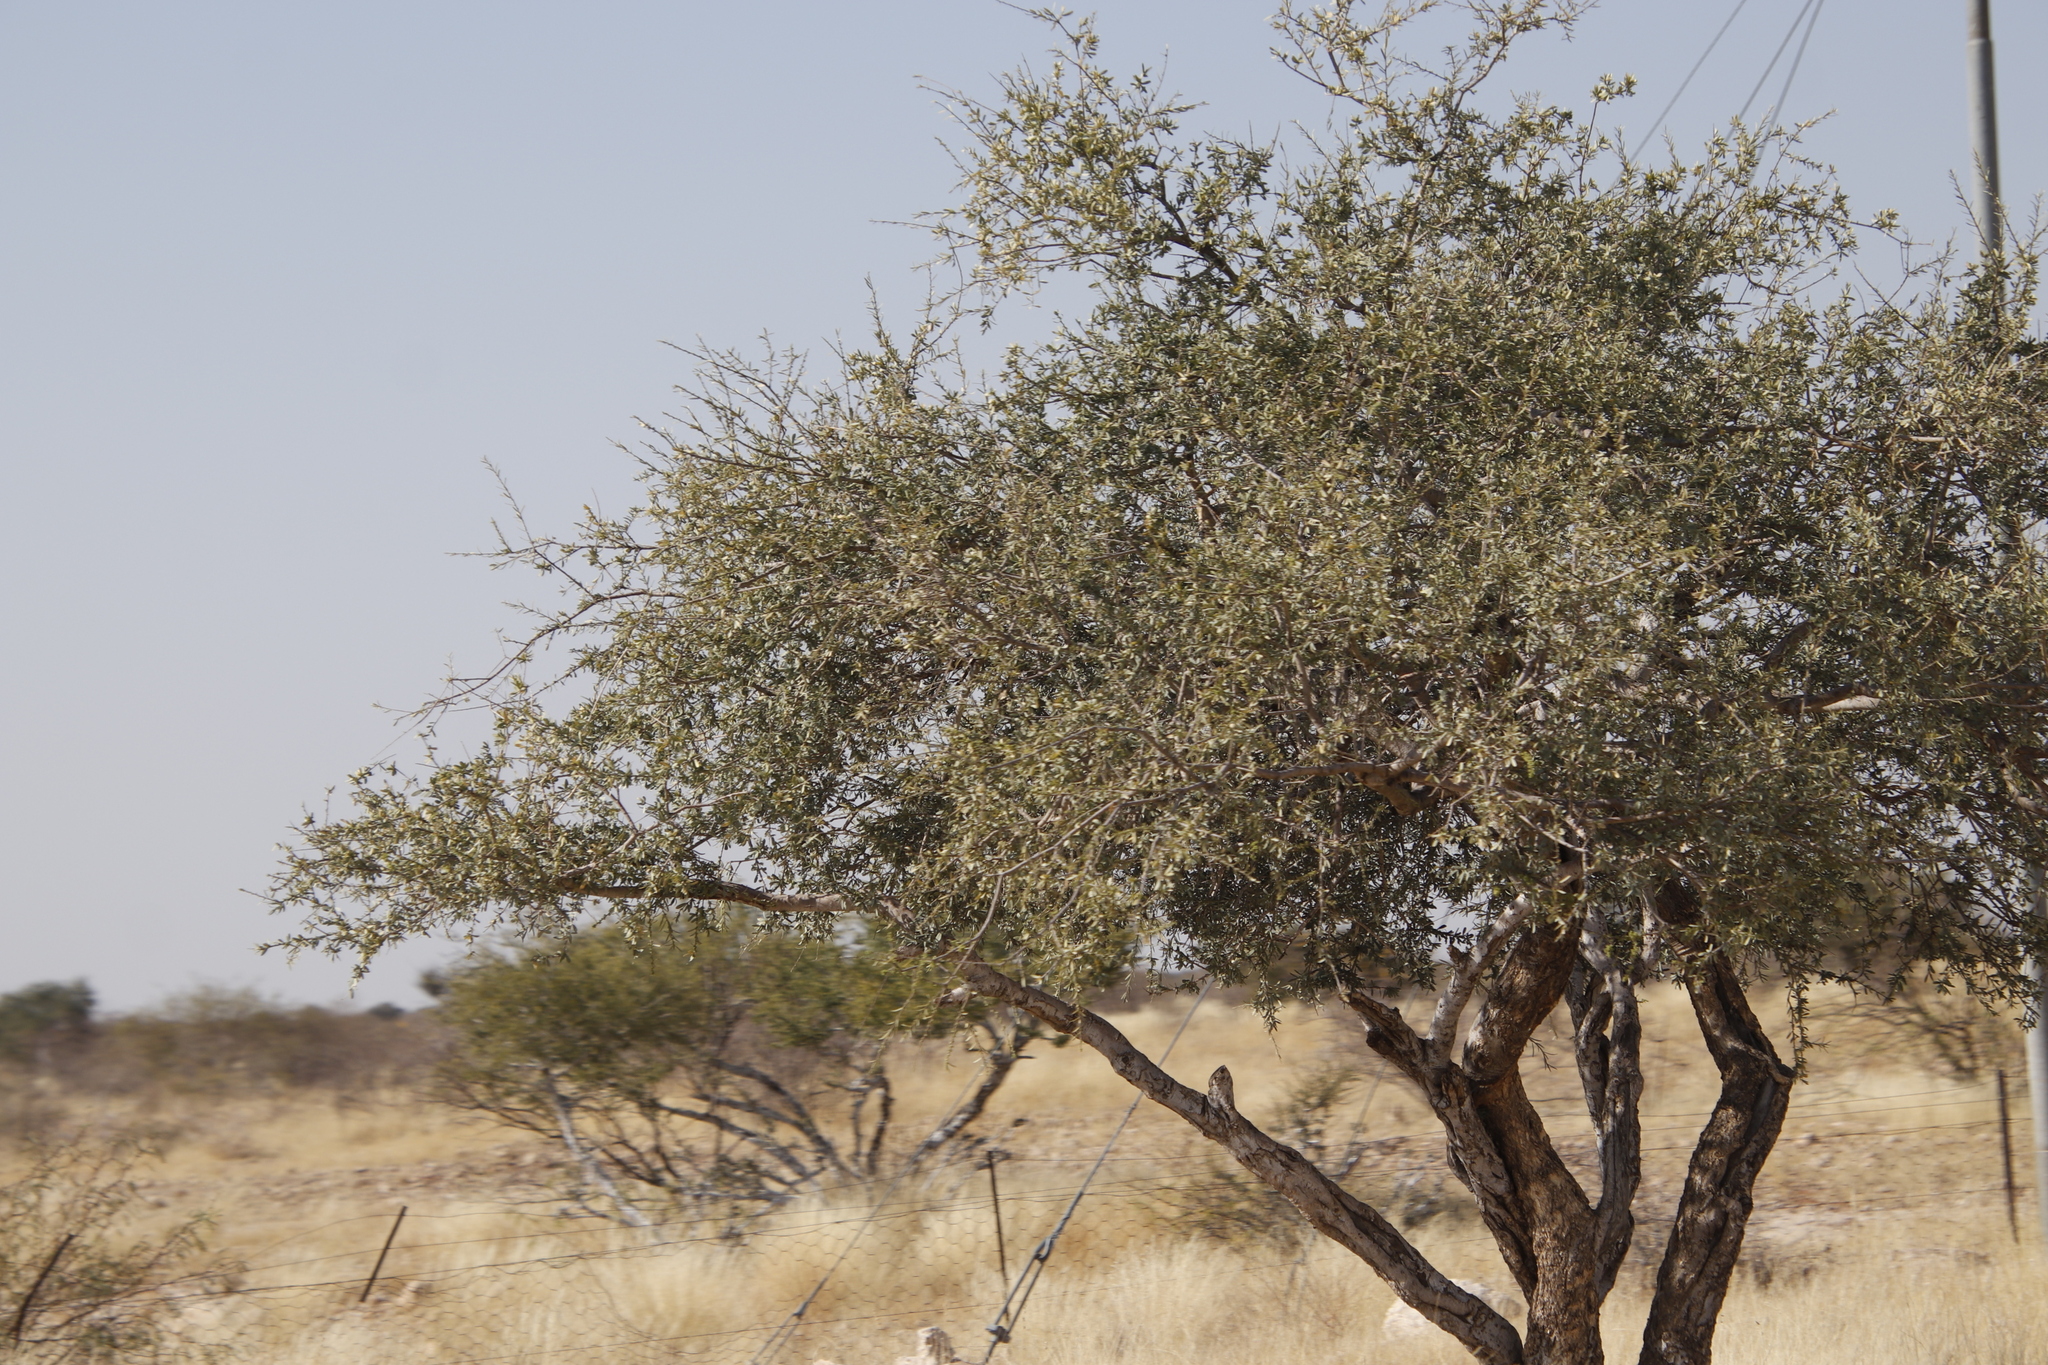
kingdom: Plantae
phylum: Tracheophyta
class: Magnoliopsida
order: Brassicales
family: Capparaceae
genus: Boscia
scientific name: Boscia albitrunca
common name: Caper bush
